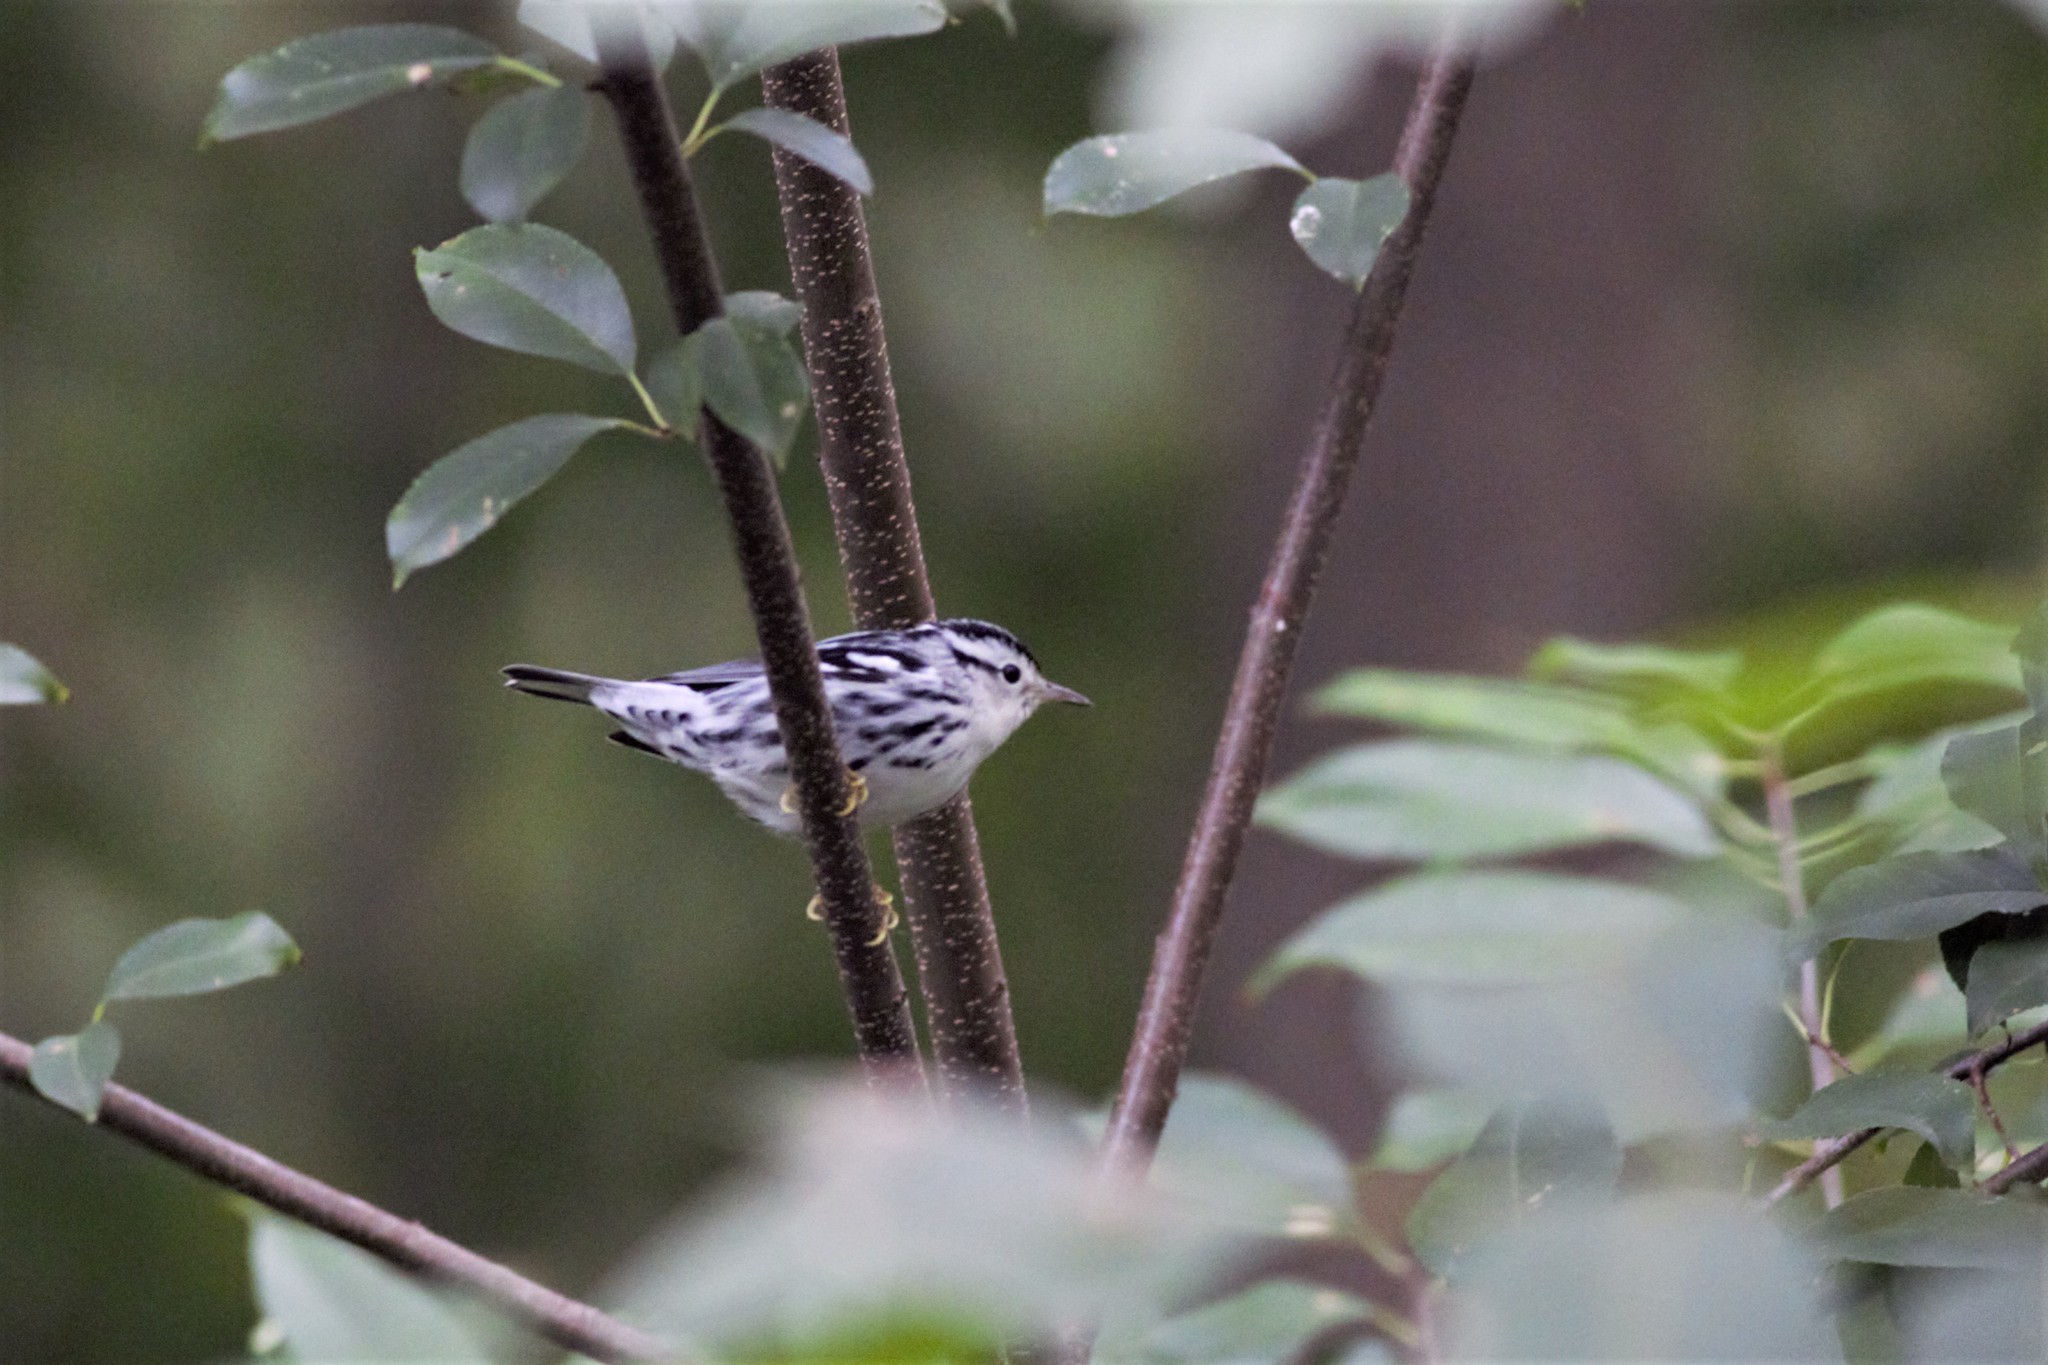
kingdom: Animalia
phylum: Chordata
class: Aves
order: Passeriformes
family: Parulidae
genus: Mniotilta
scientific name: Mniotilta varia
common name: Black-and-white warbler
